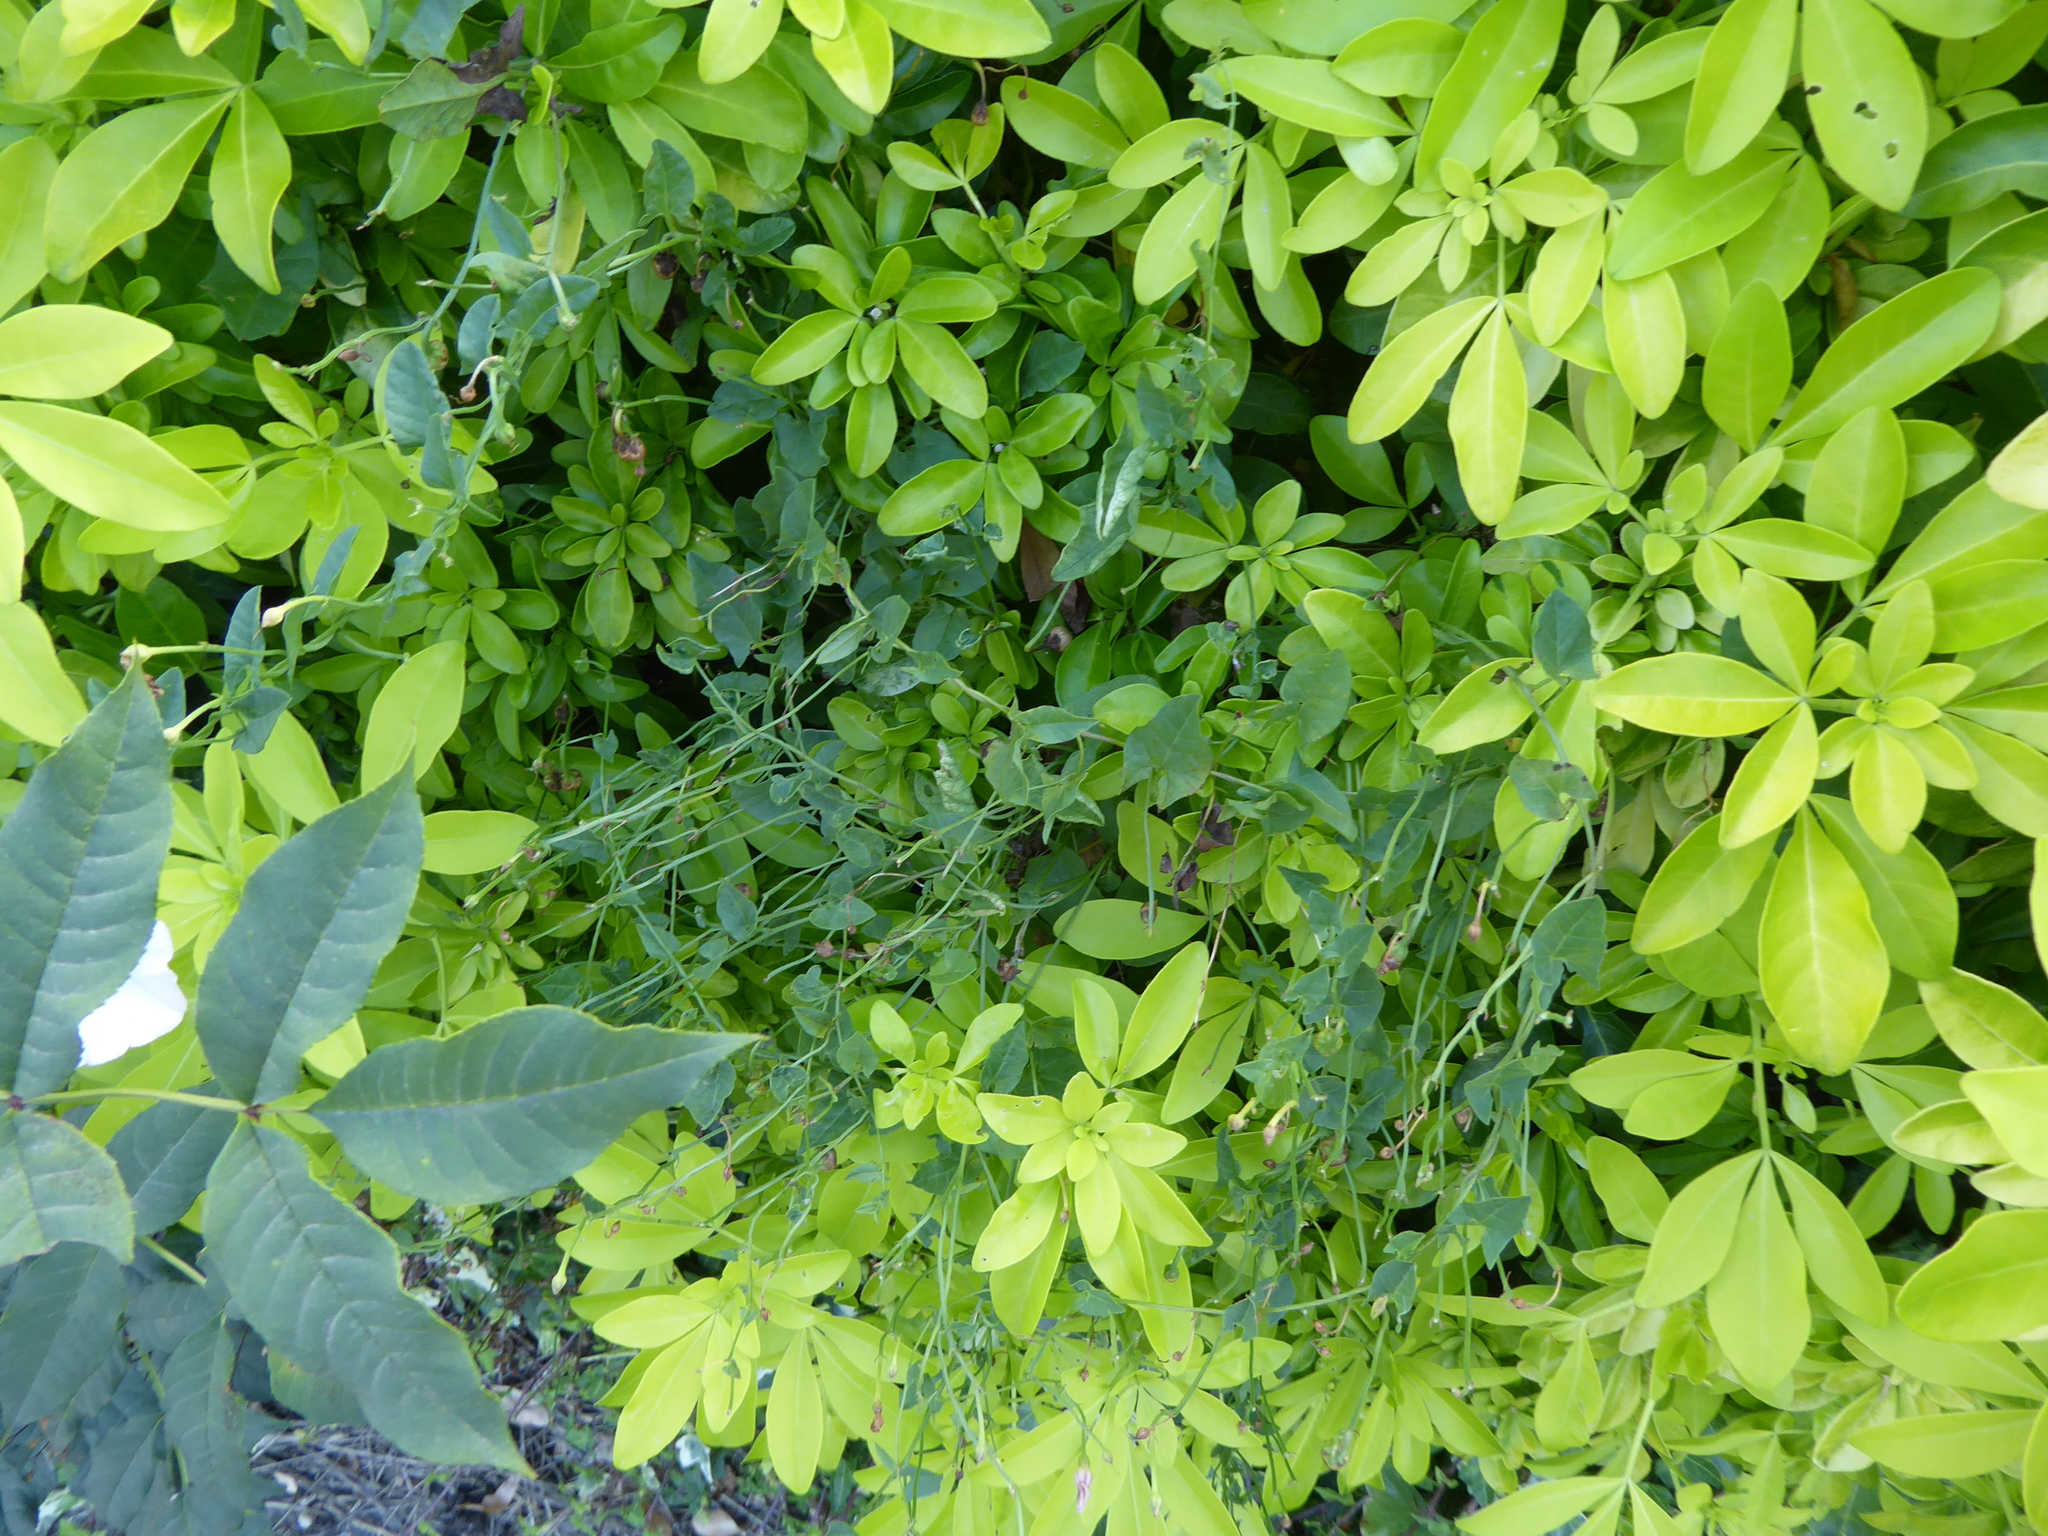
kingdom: Plantae
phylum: Tracheophyta
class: Magnoliopsida
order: Solanales
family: Convolvulaceae
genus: Convolvulus
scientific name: Convolvulus arvensis
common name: Field bindweed
